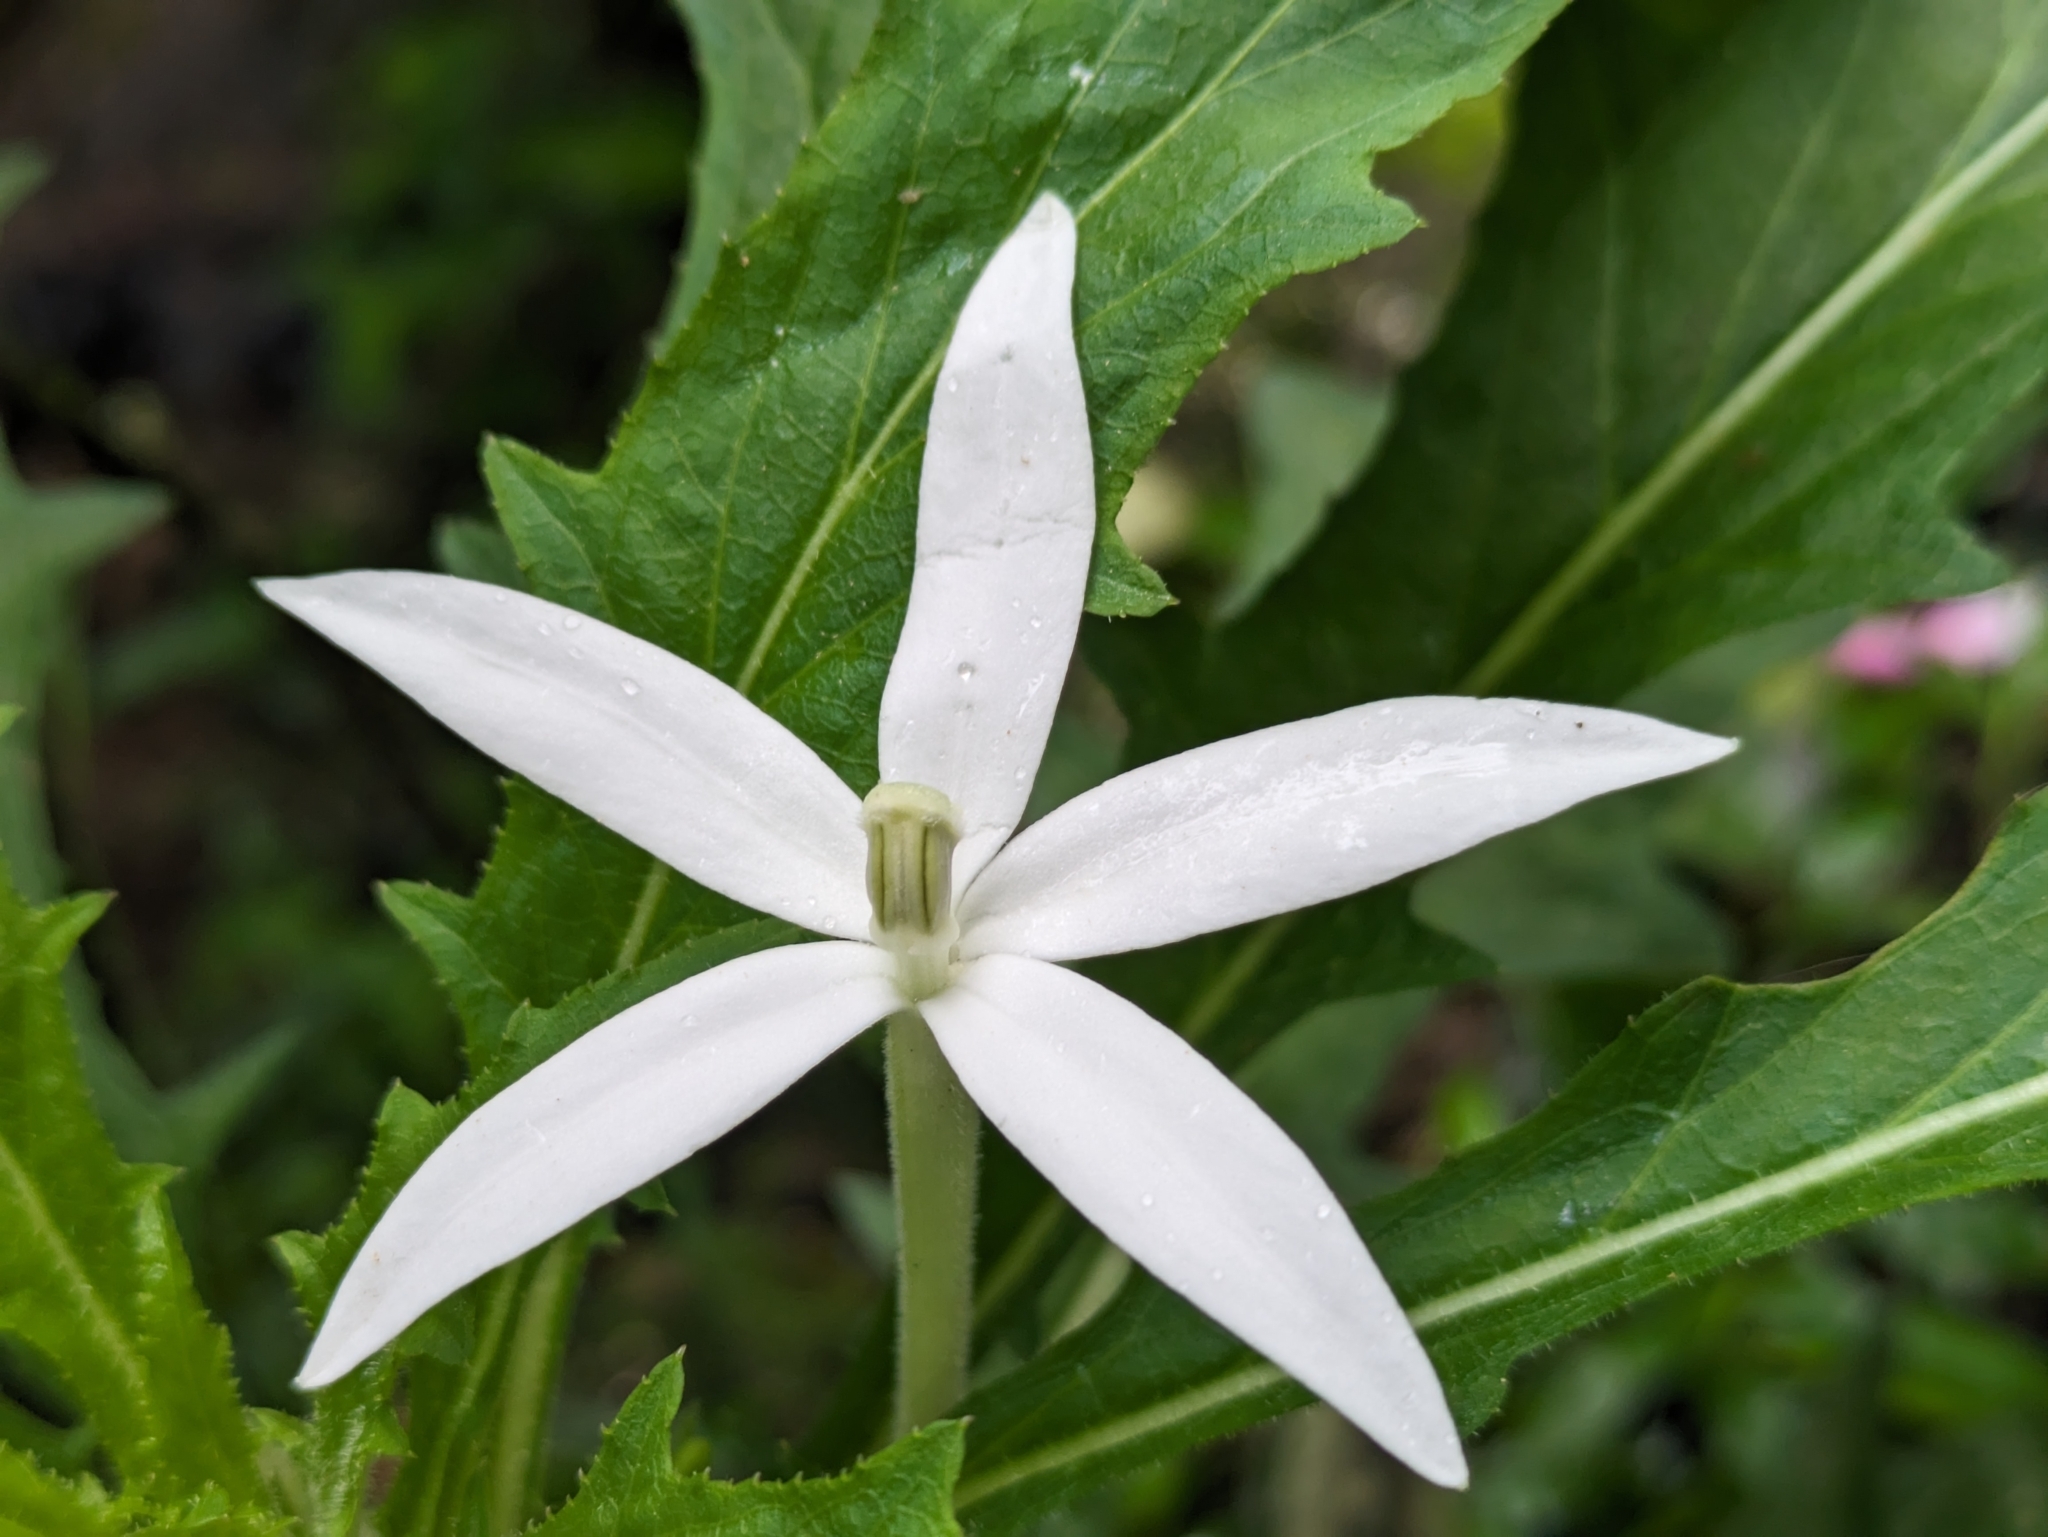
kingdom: Plantae
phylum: Tracheophyta
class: Magnoliopsida
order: Asterales
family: Campanulaceae
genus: Hippobroma
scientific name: Hippobroma longiflora
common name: Madamfate
